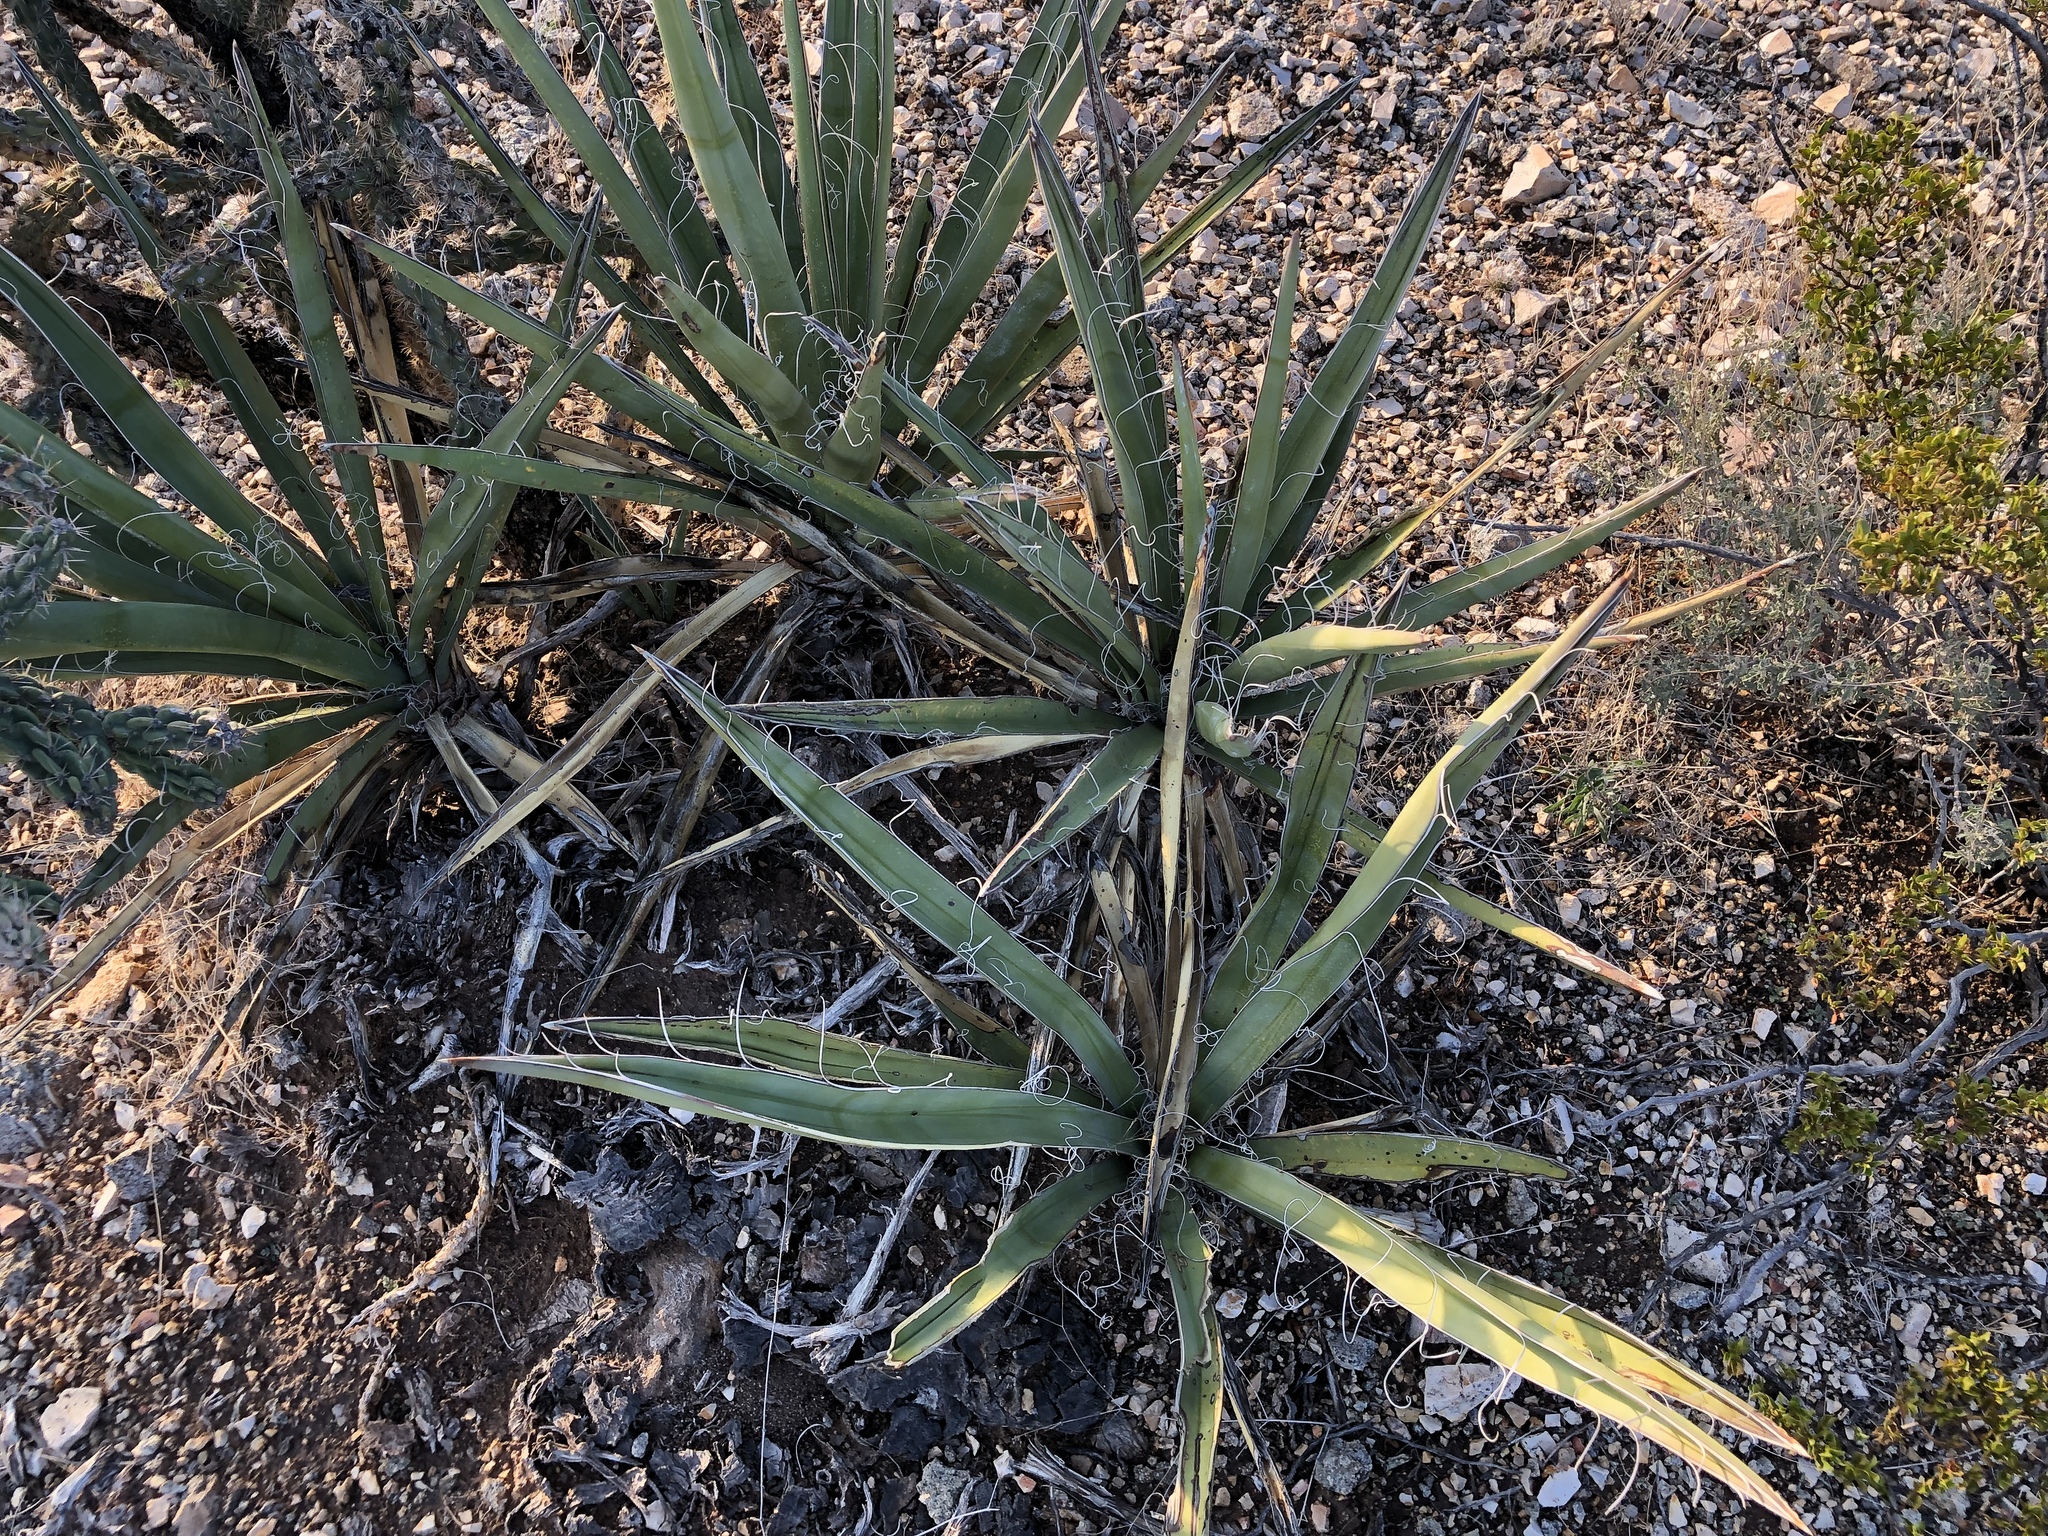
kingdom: Plantae
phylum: Tracheophyta
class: Liliopsida
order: Asparagales
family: Asparagaceae
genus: Yucca
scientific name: Yucca baccata
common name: Banana yucca
